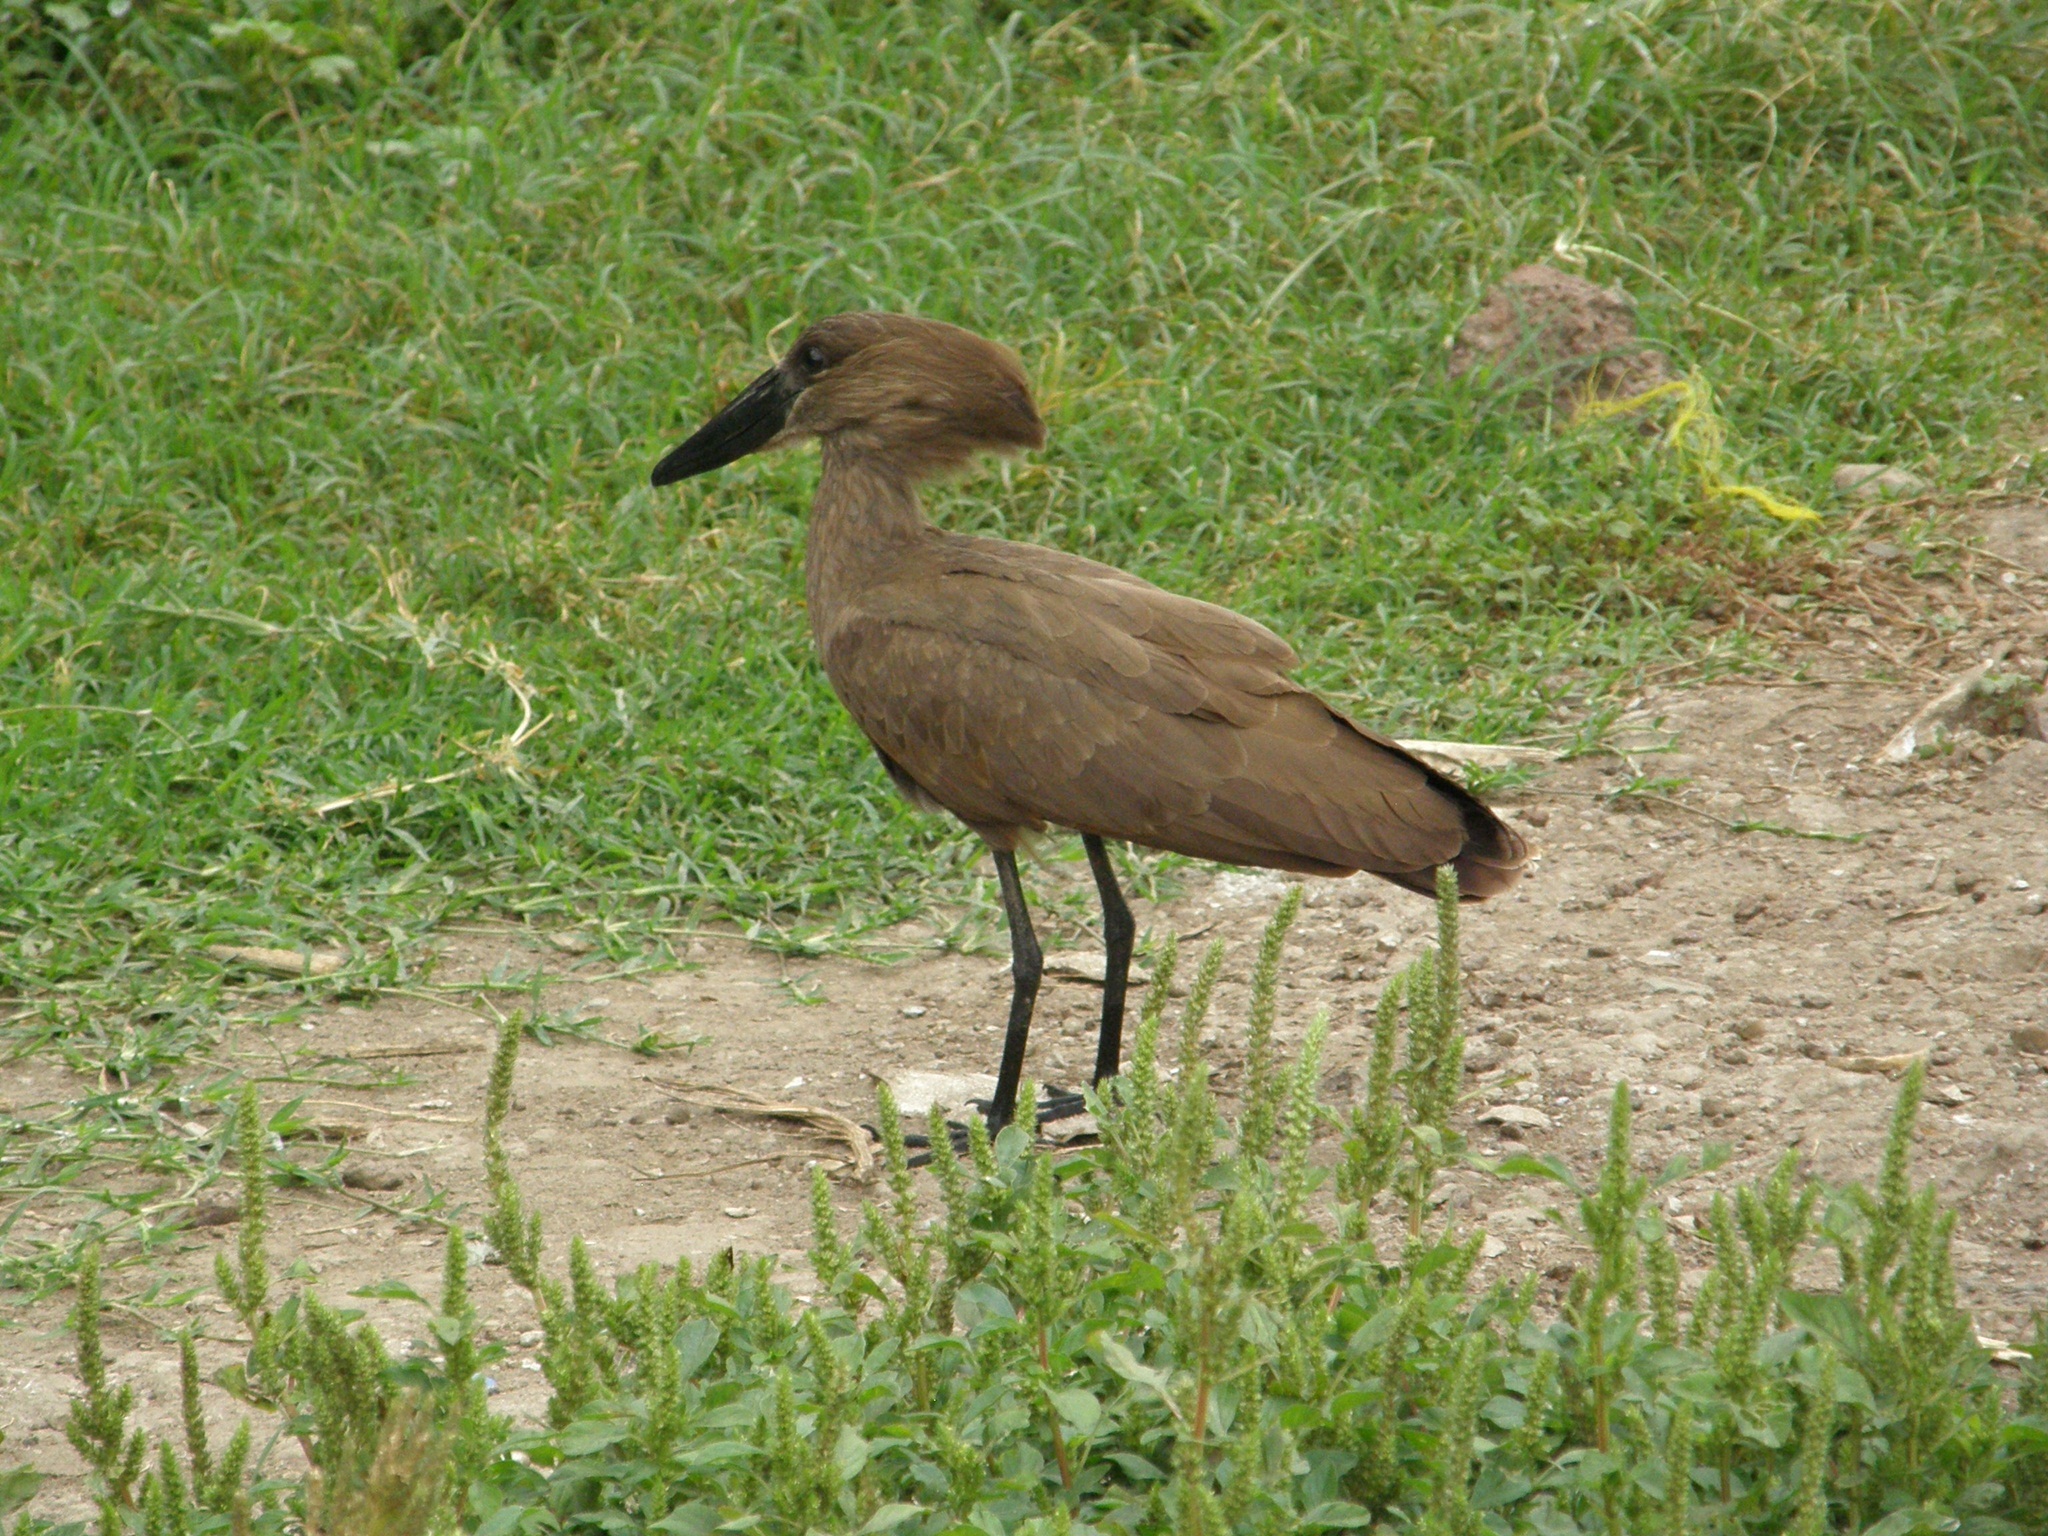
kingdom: Animalia
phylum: Chordata
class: Aves
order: Pelecaniformes
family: Scopidae
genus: Scopus
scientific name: Scopus umbretta
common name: Hamerkop
